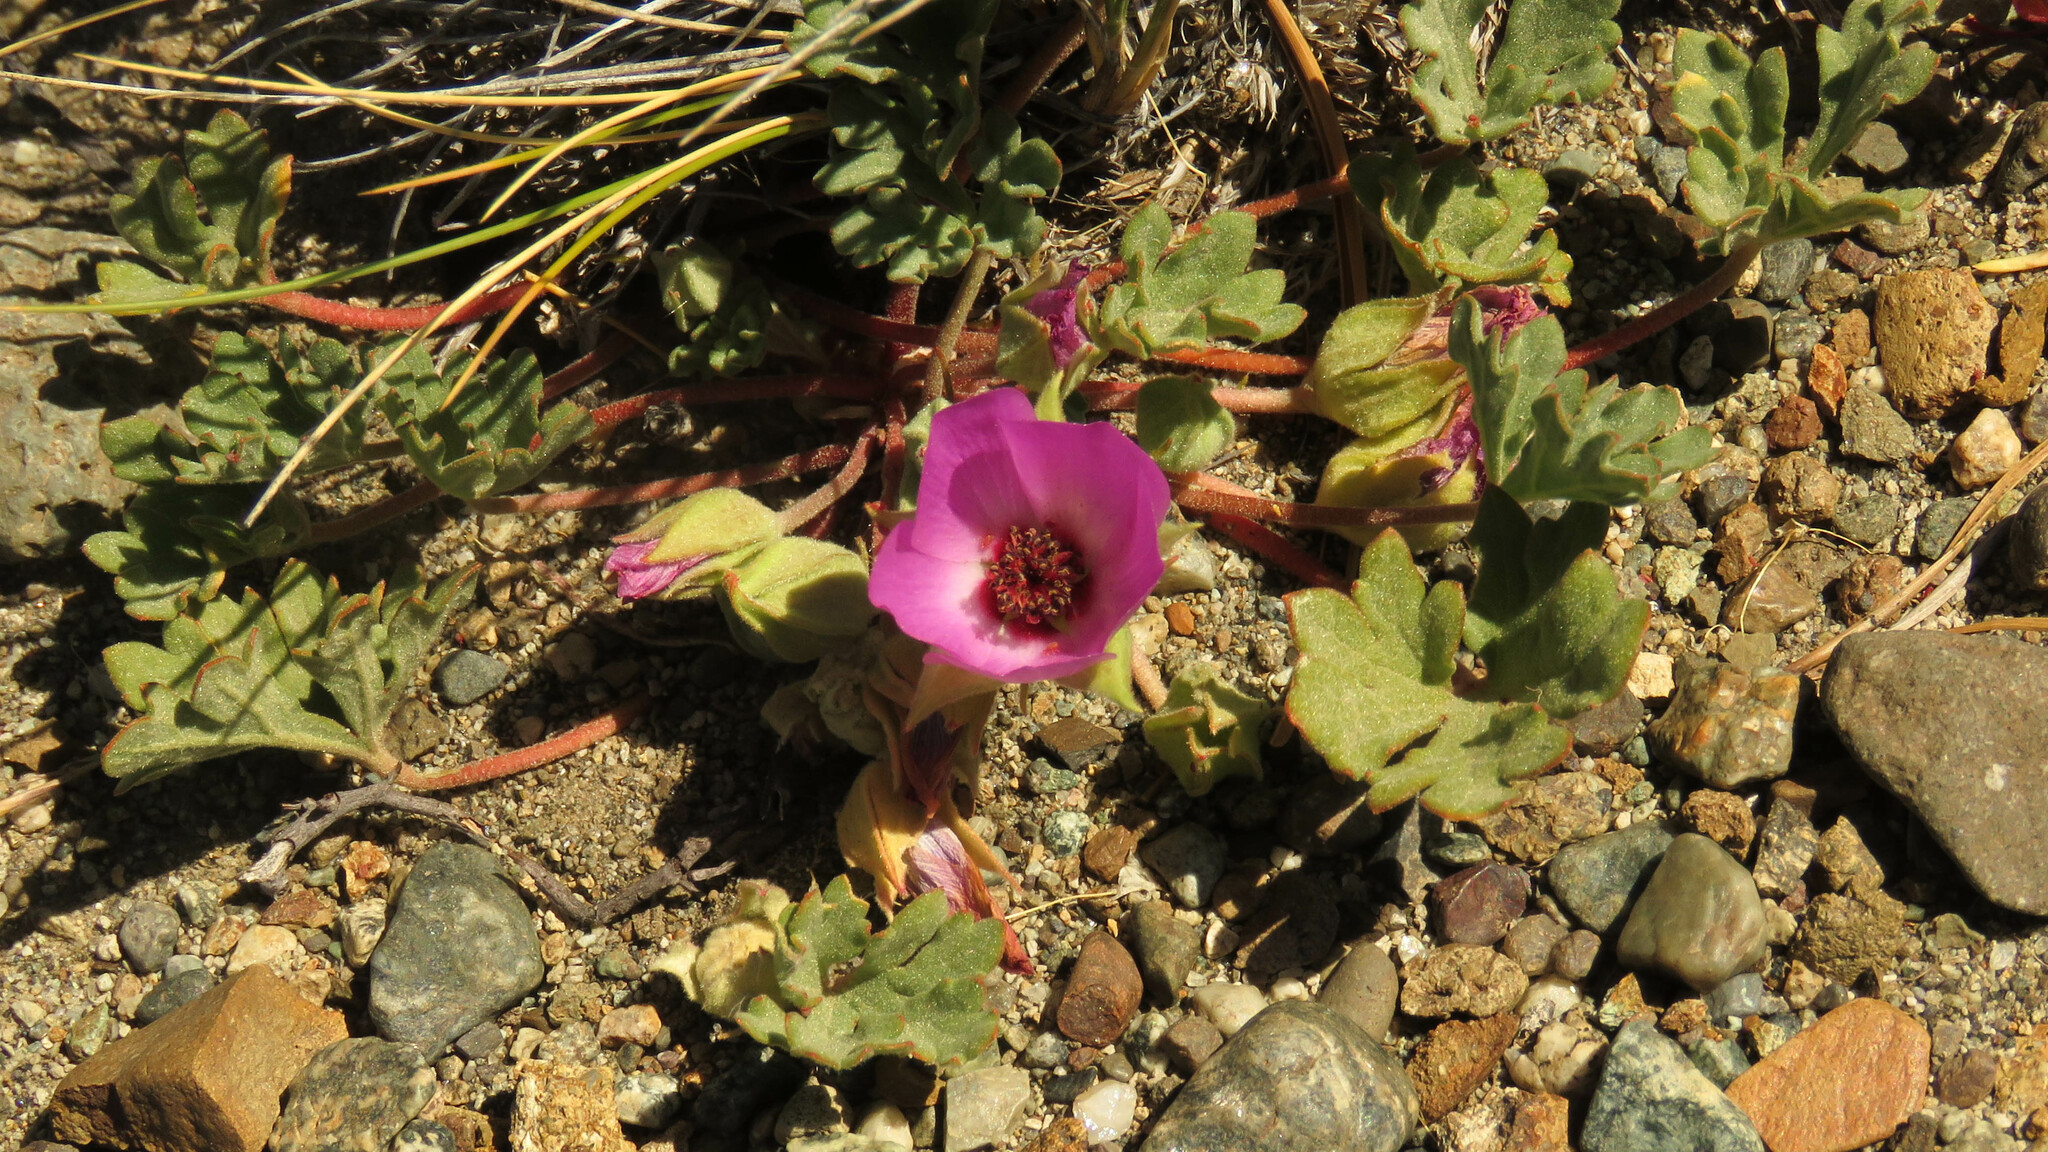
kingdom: Plantae
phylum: Tracheophyta
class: Magnoliopsida
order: Malvales
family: Malvaceae
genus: Tarasa
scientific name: Tarasa humilis
